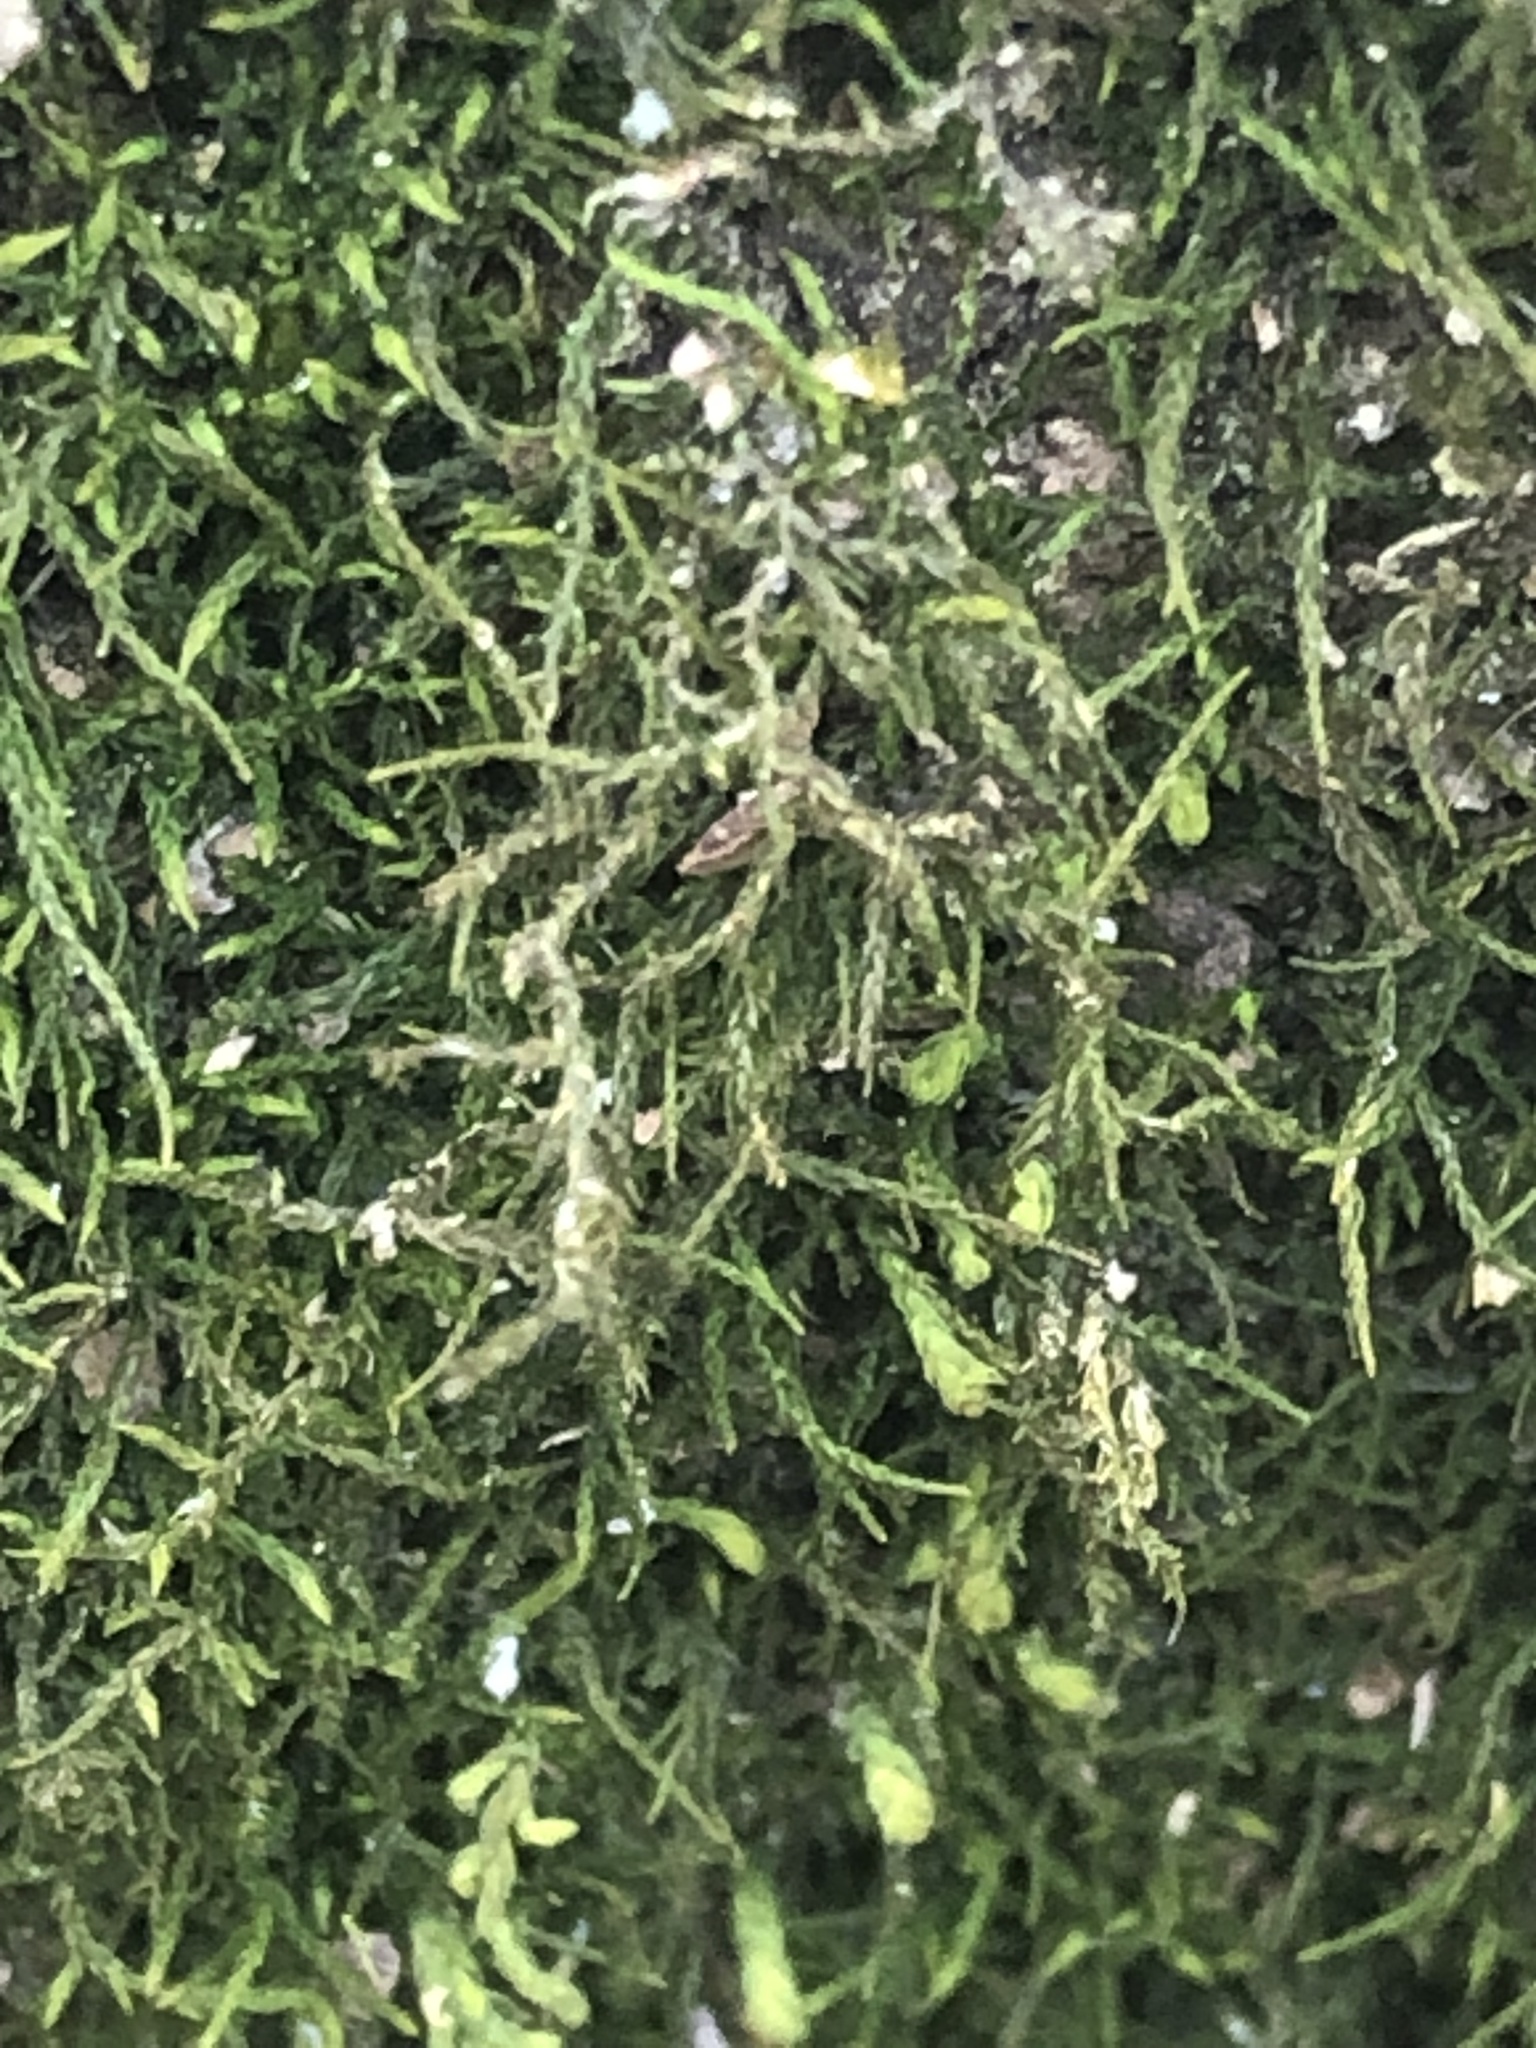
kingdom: Plantae
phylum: Bryophyta
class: Bryopsida
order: Hypnales
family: Neckeraceae
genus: Pseudanomodon
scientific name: Pseudanomodon attenuatus
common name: Tree-skirt moss
